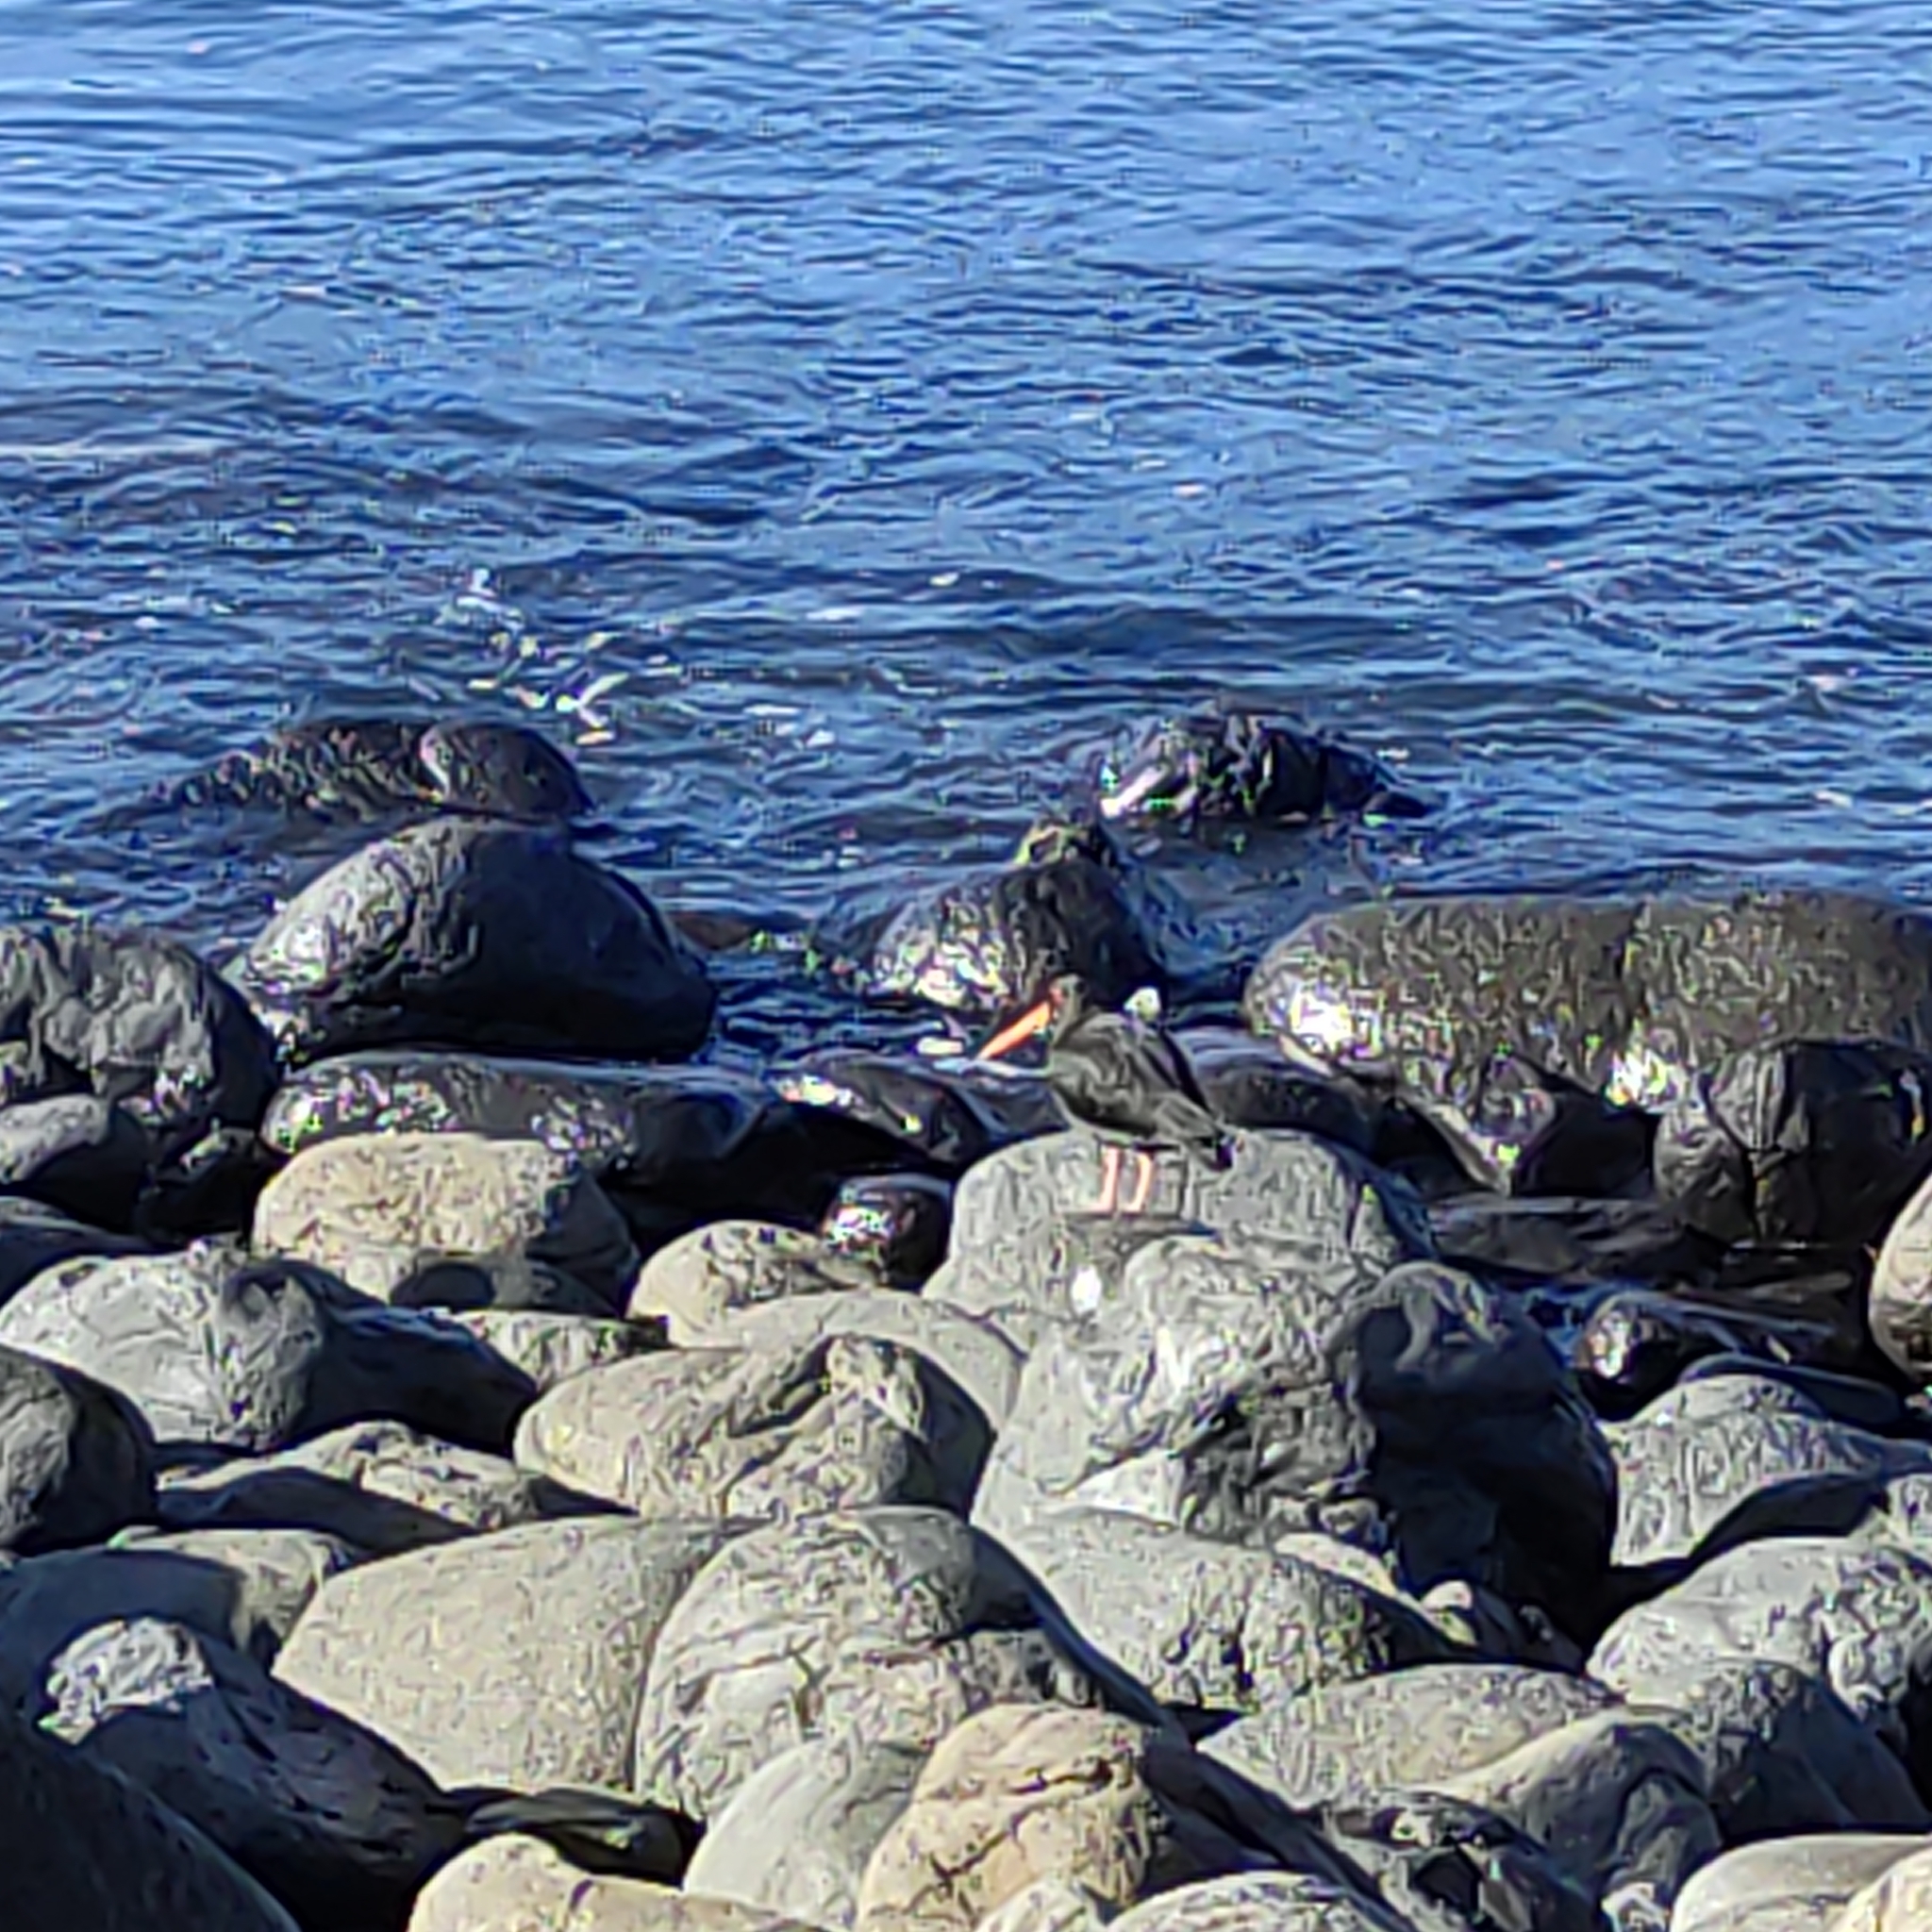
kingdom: Animalia
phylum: Chordata
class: Aves
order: Charadriiformes
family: Haematopodidae
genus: Haematopus
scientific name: Haematopus unicolor
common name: Variable oystercatcher
